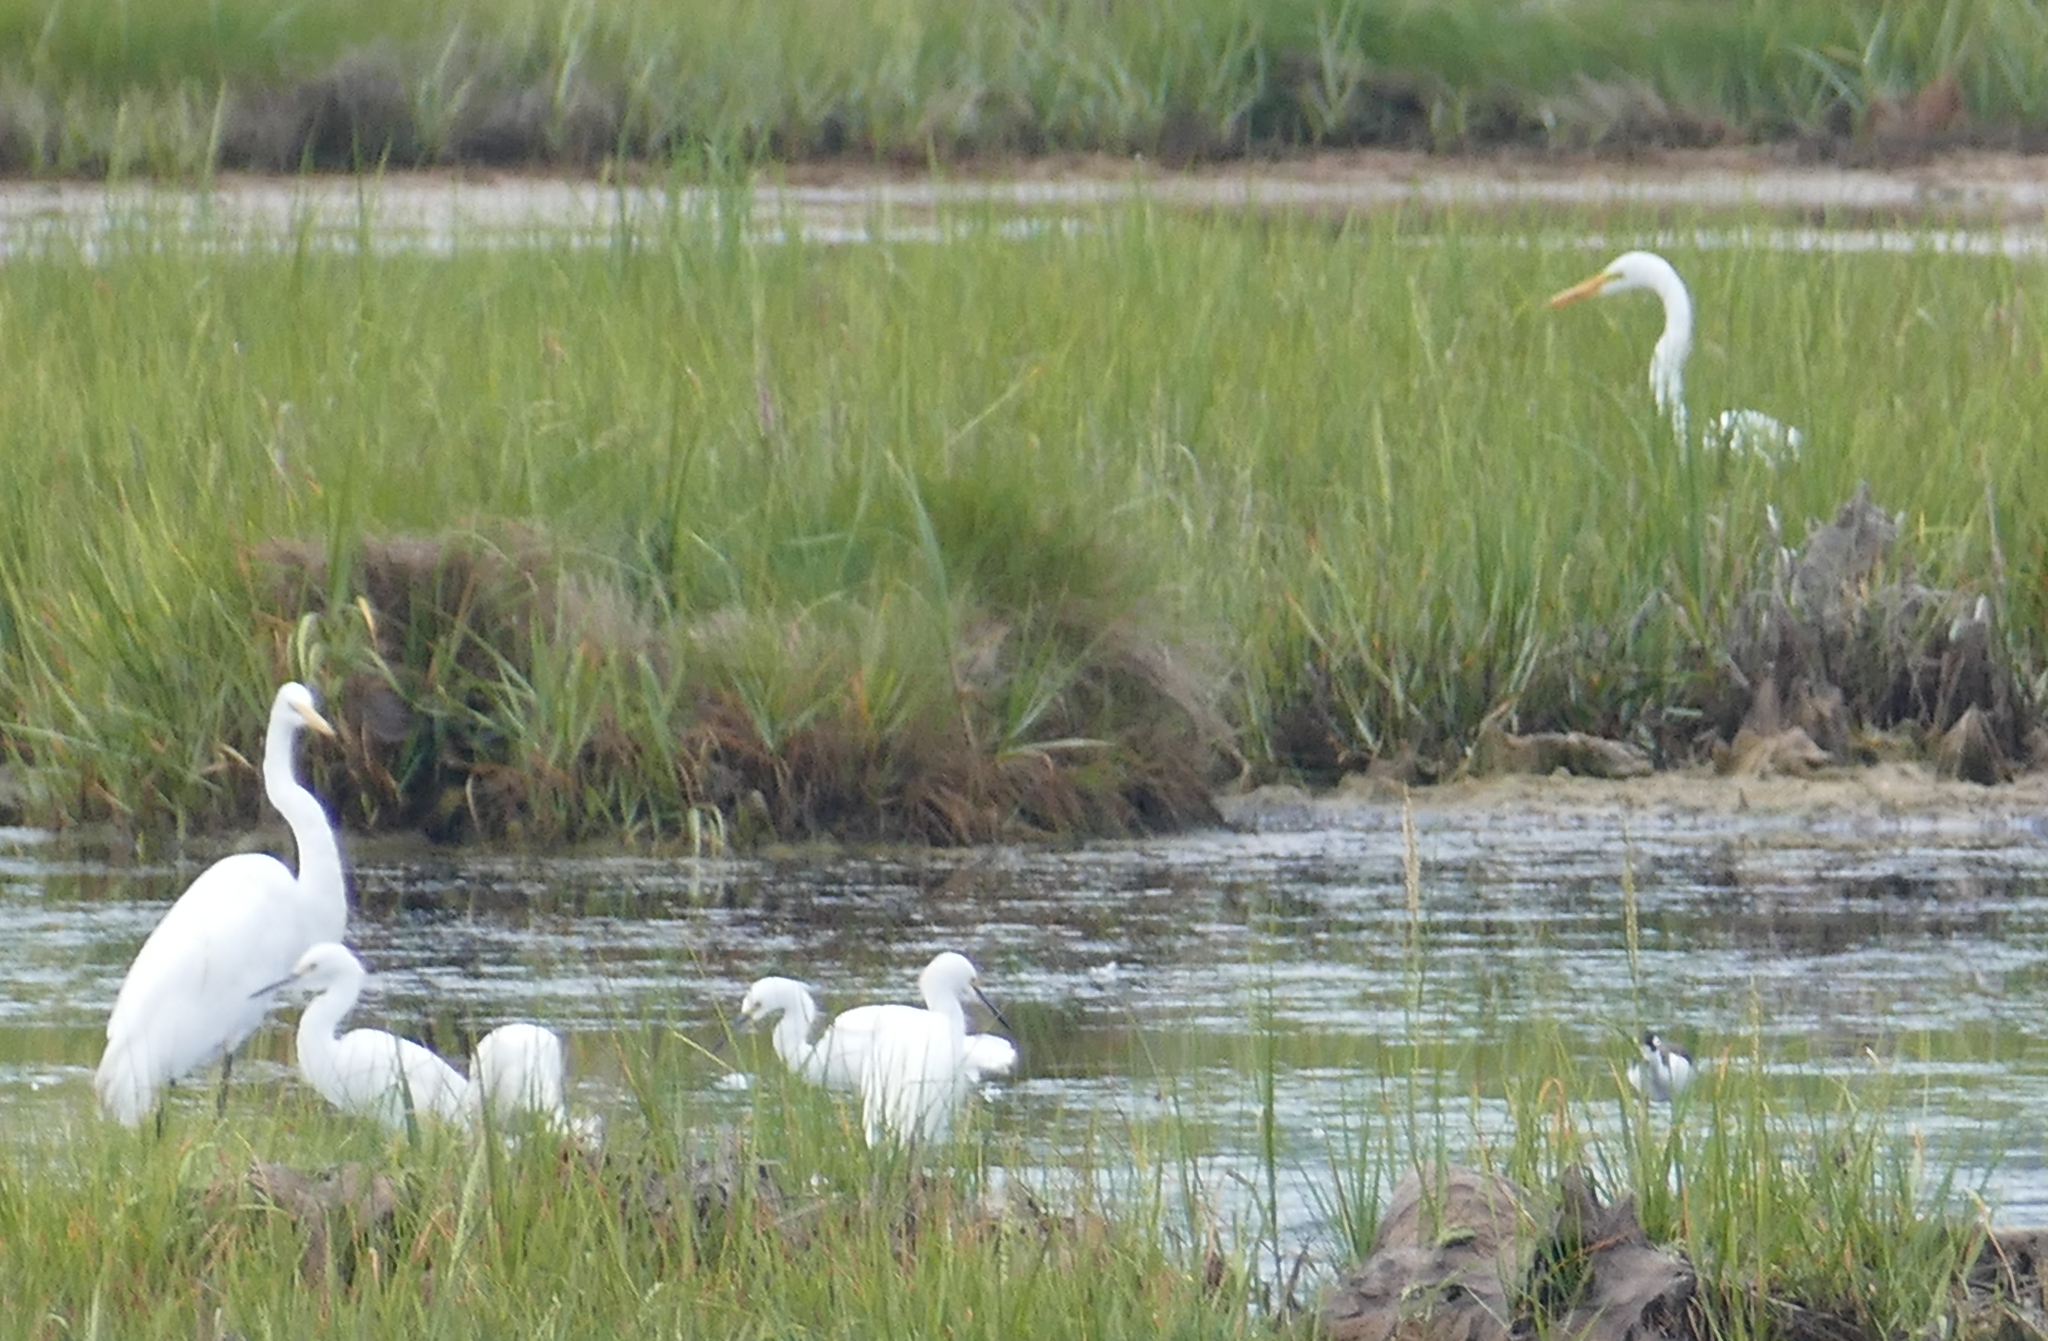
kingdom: Animalia
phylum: Chordata
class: Aves
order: Pelecaniformes
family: Ardeidae
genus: Ardea
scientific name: Ardea alba
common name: Great egret
